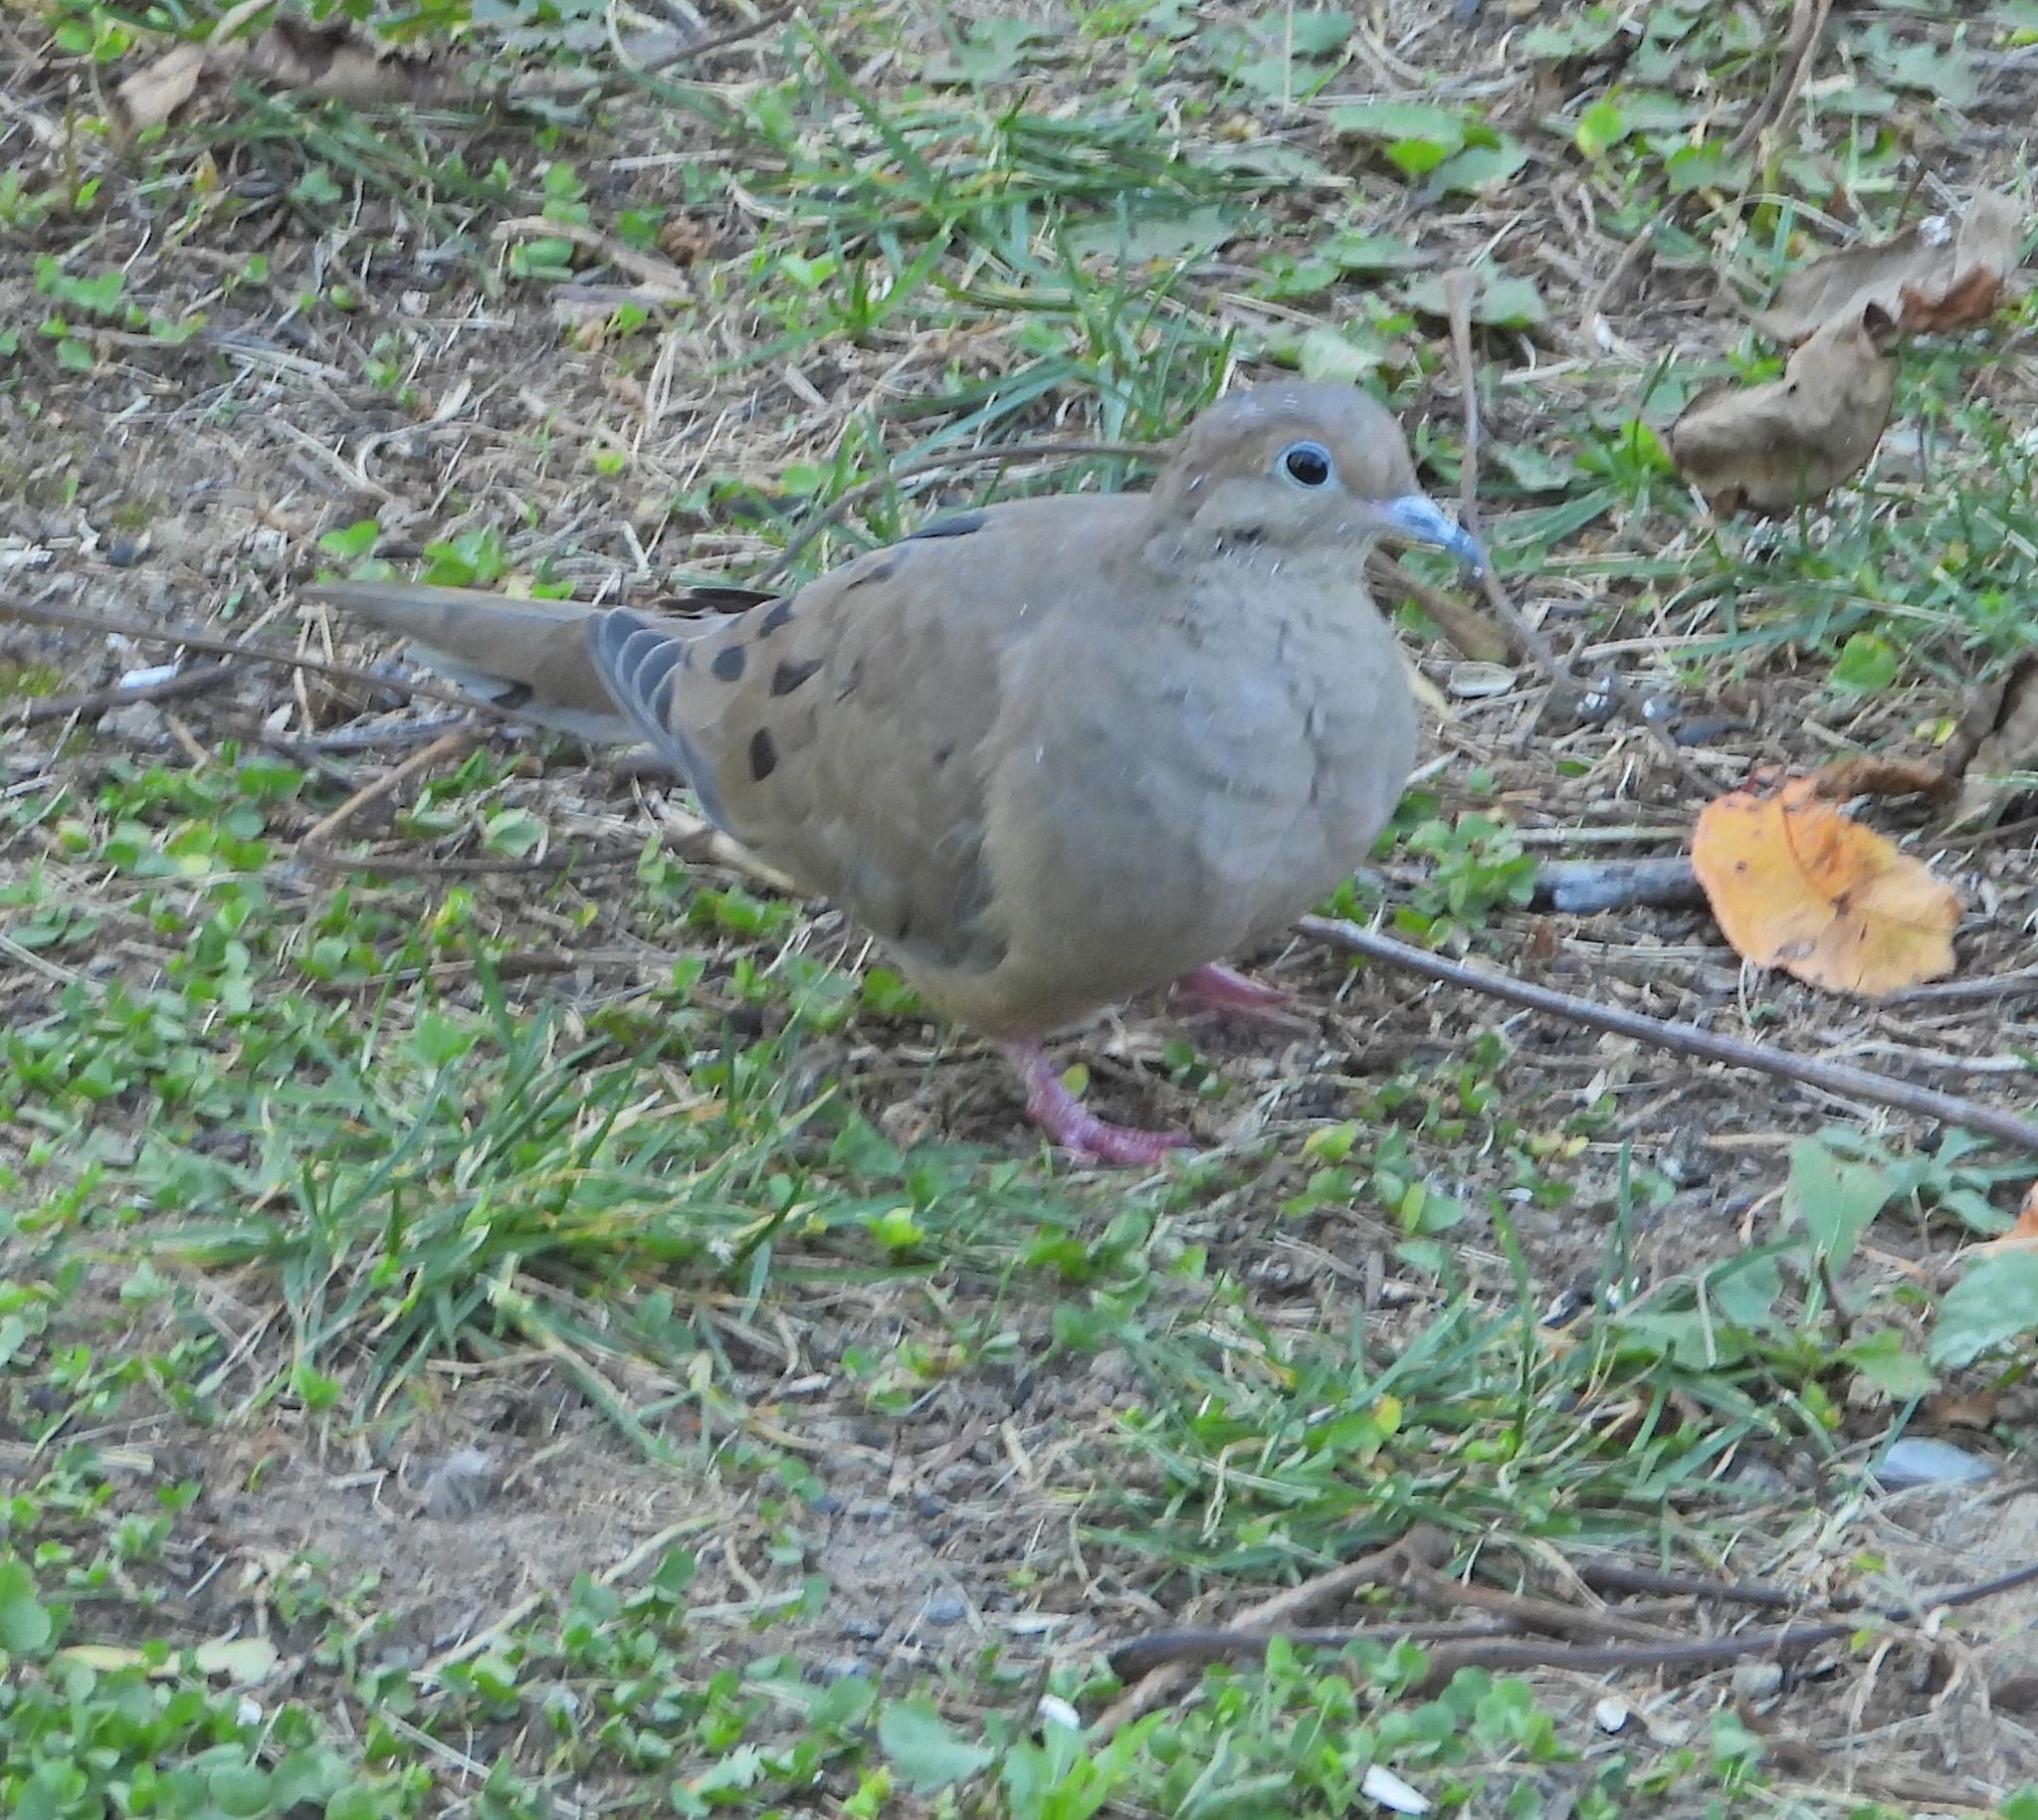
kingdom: Animalia
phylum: Chordata
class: Aves
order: Columbiformes
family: Columbidae
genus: Zenaida
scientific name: Zenaida macroura
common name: Mourning dove
